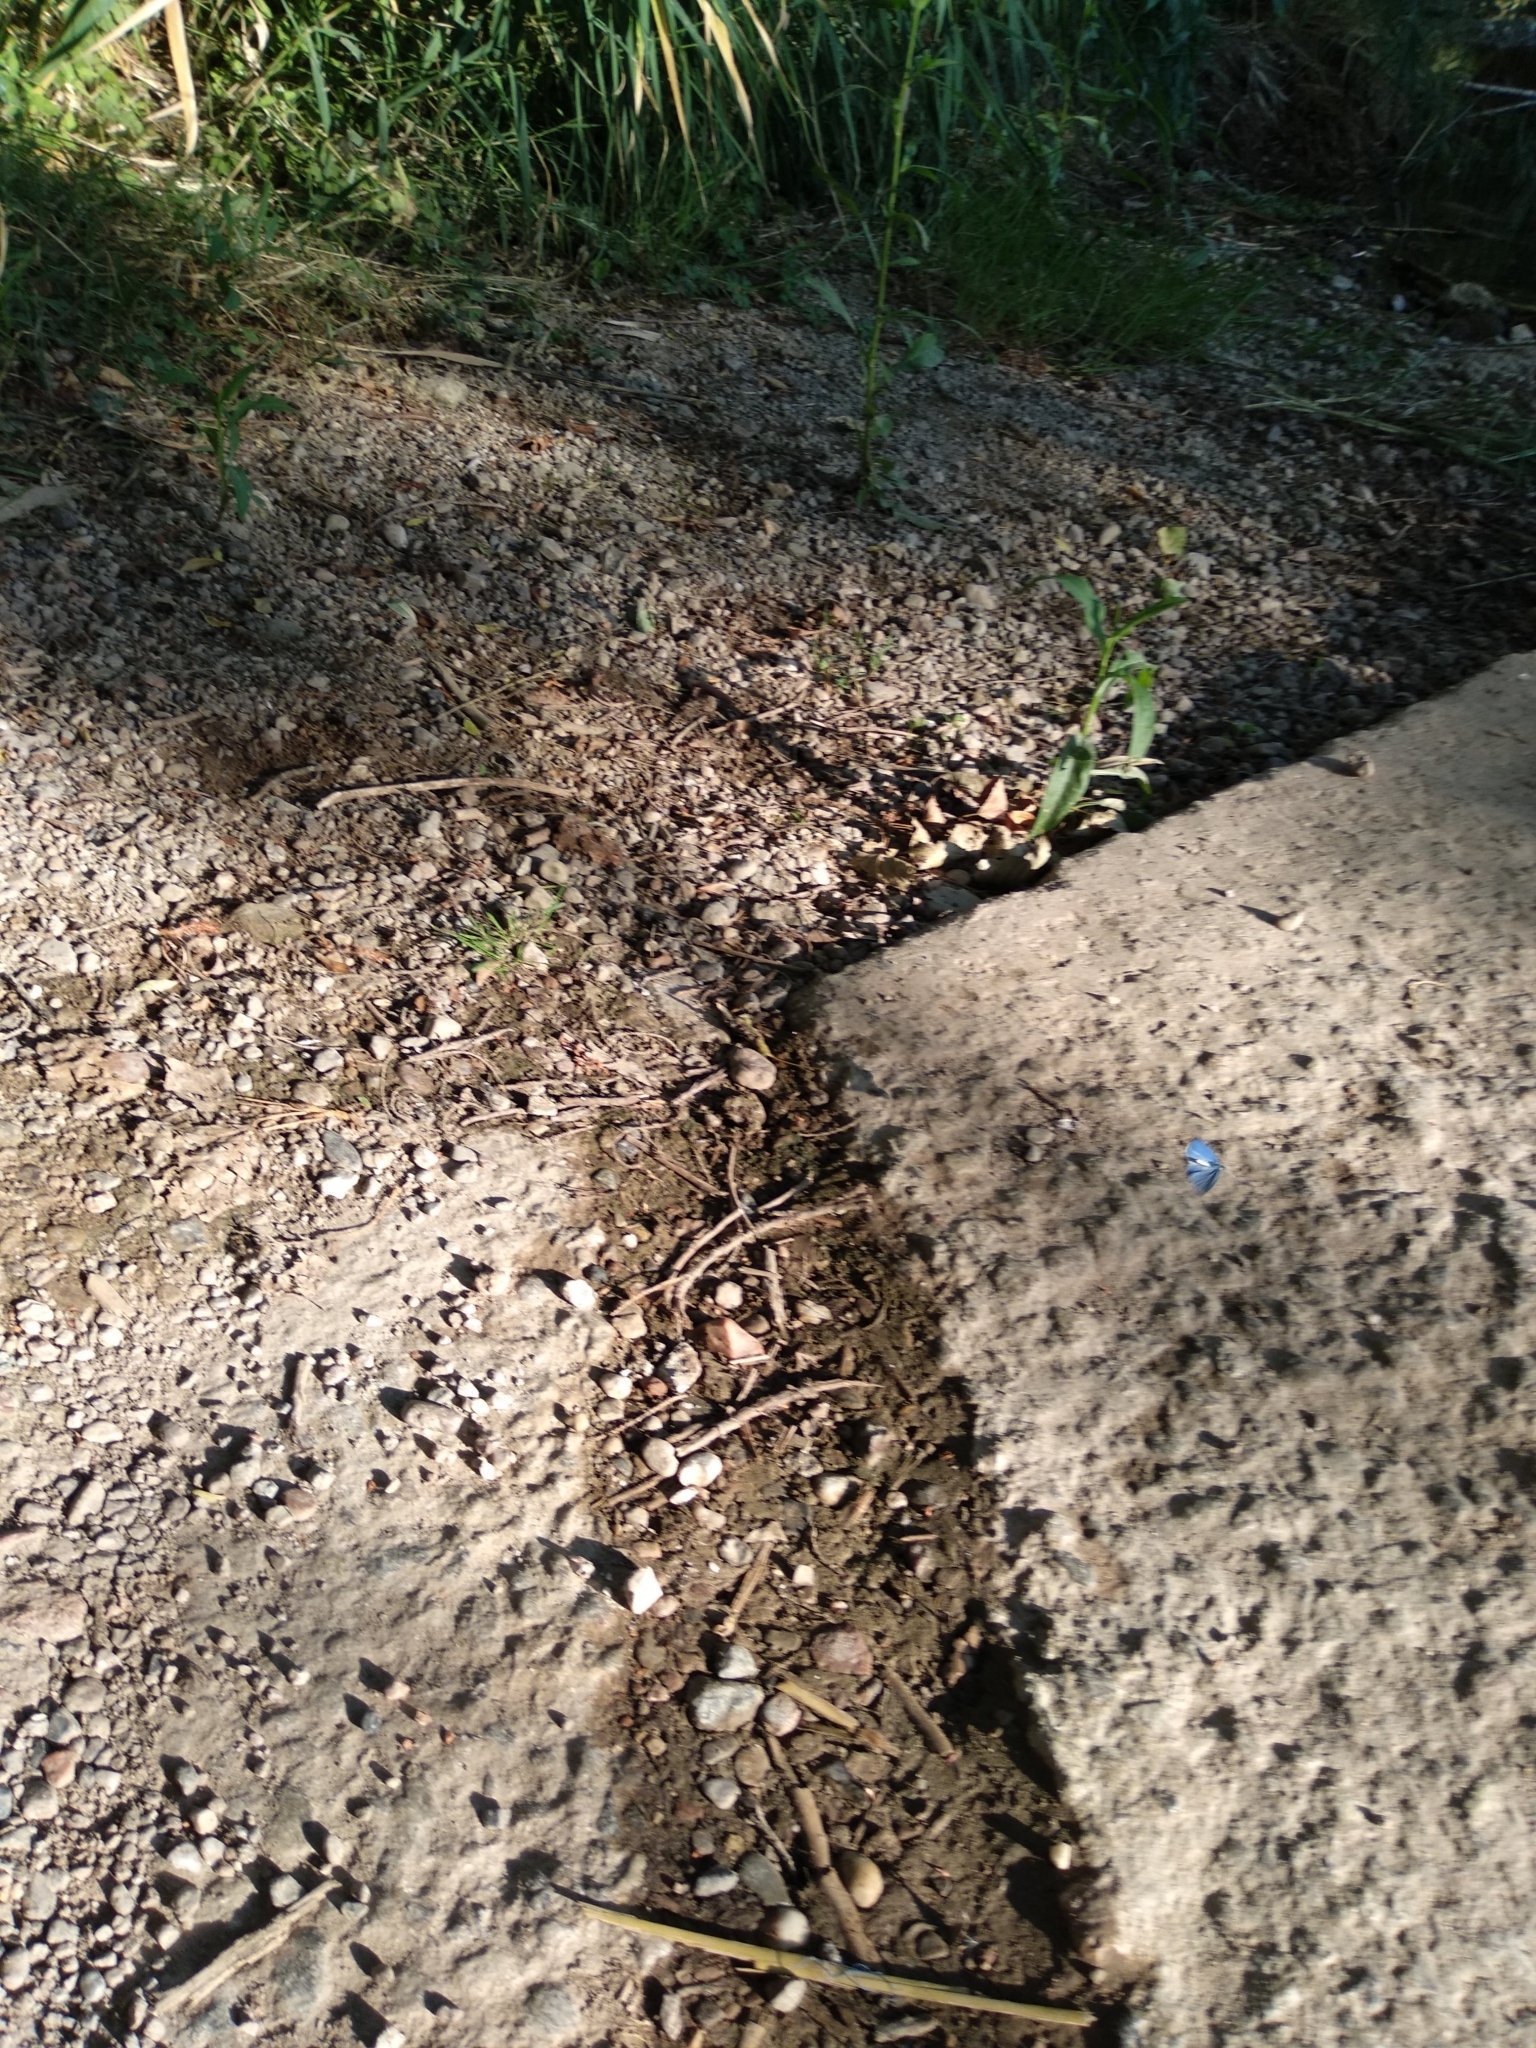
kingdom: Animalia
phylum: Arthropoda
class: Insecta
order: Lepidoptera
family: Lycaenidae
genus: Celastrina
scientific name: Celastrina argiolus
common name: Holly blue
